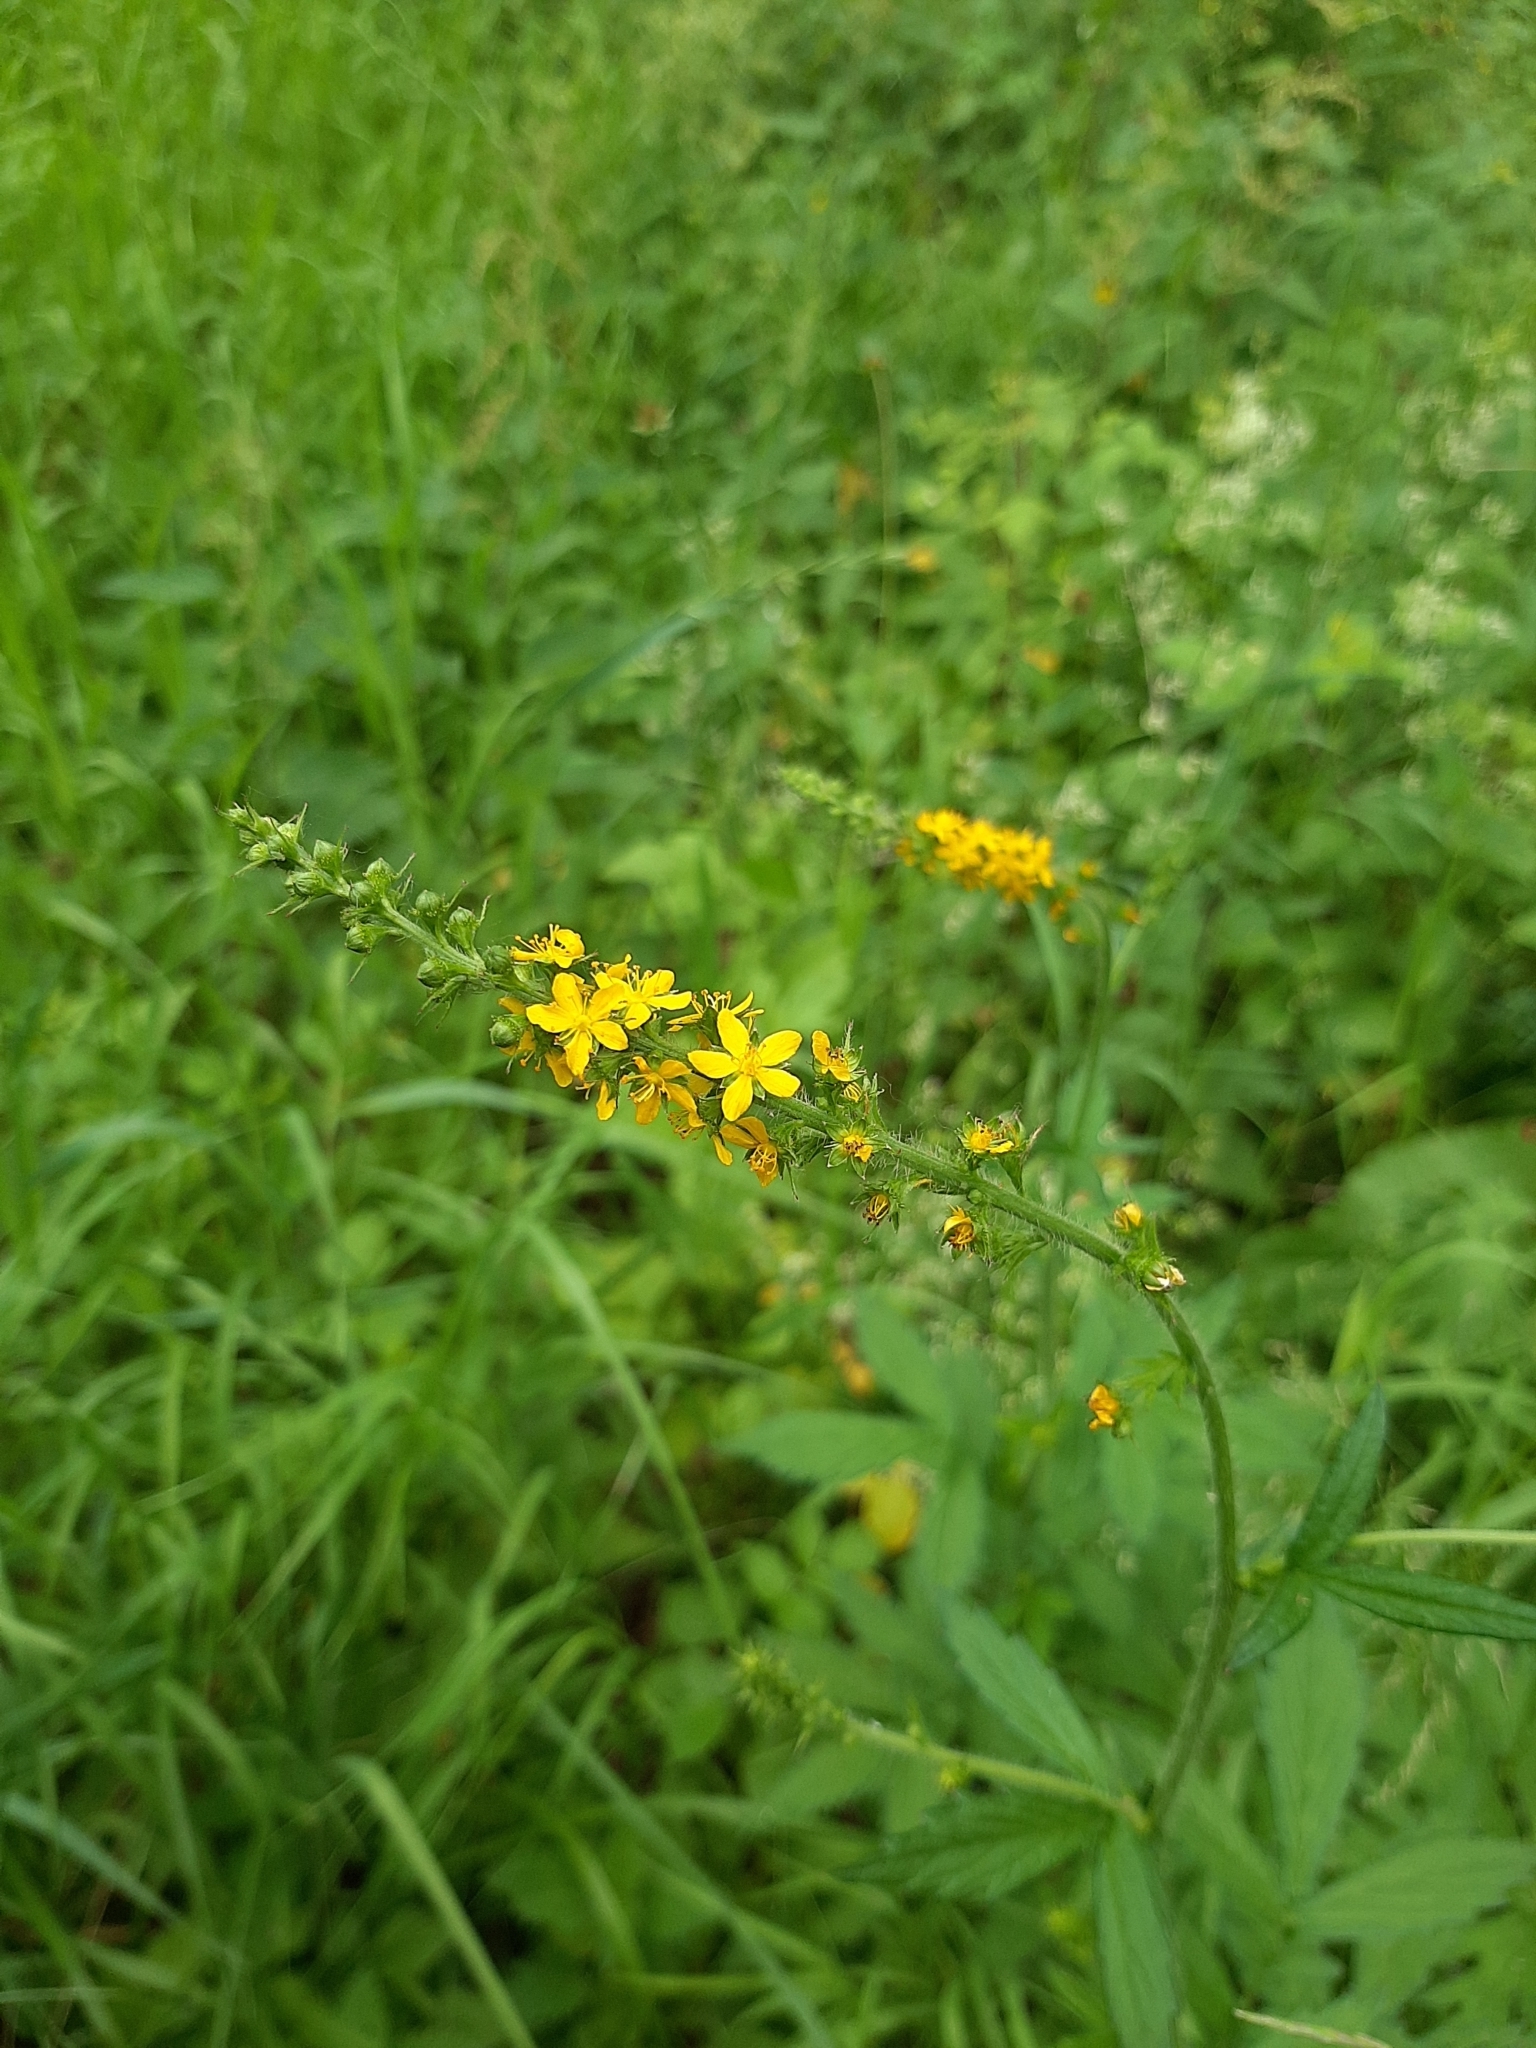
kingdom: Plantae
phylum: Tracheophyta
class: Magnoliopsida
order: Rosales
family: Rosaceae
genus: Agrimonia
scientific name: Agrimonia pilosa
